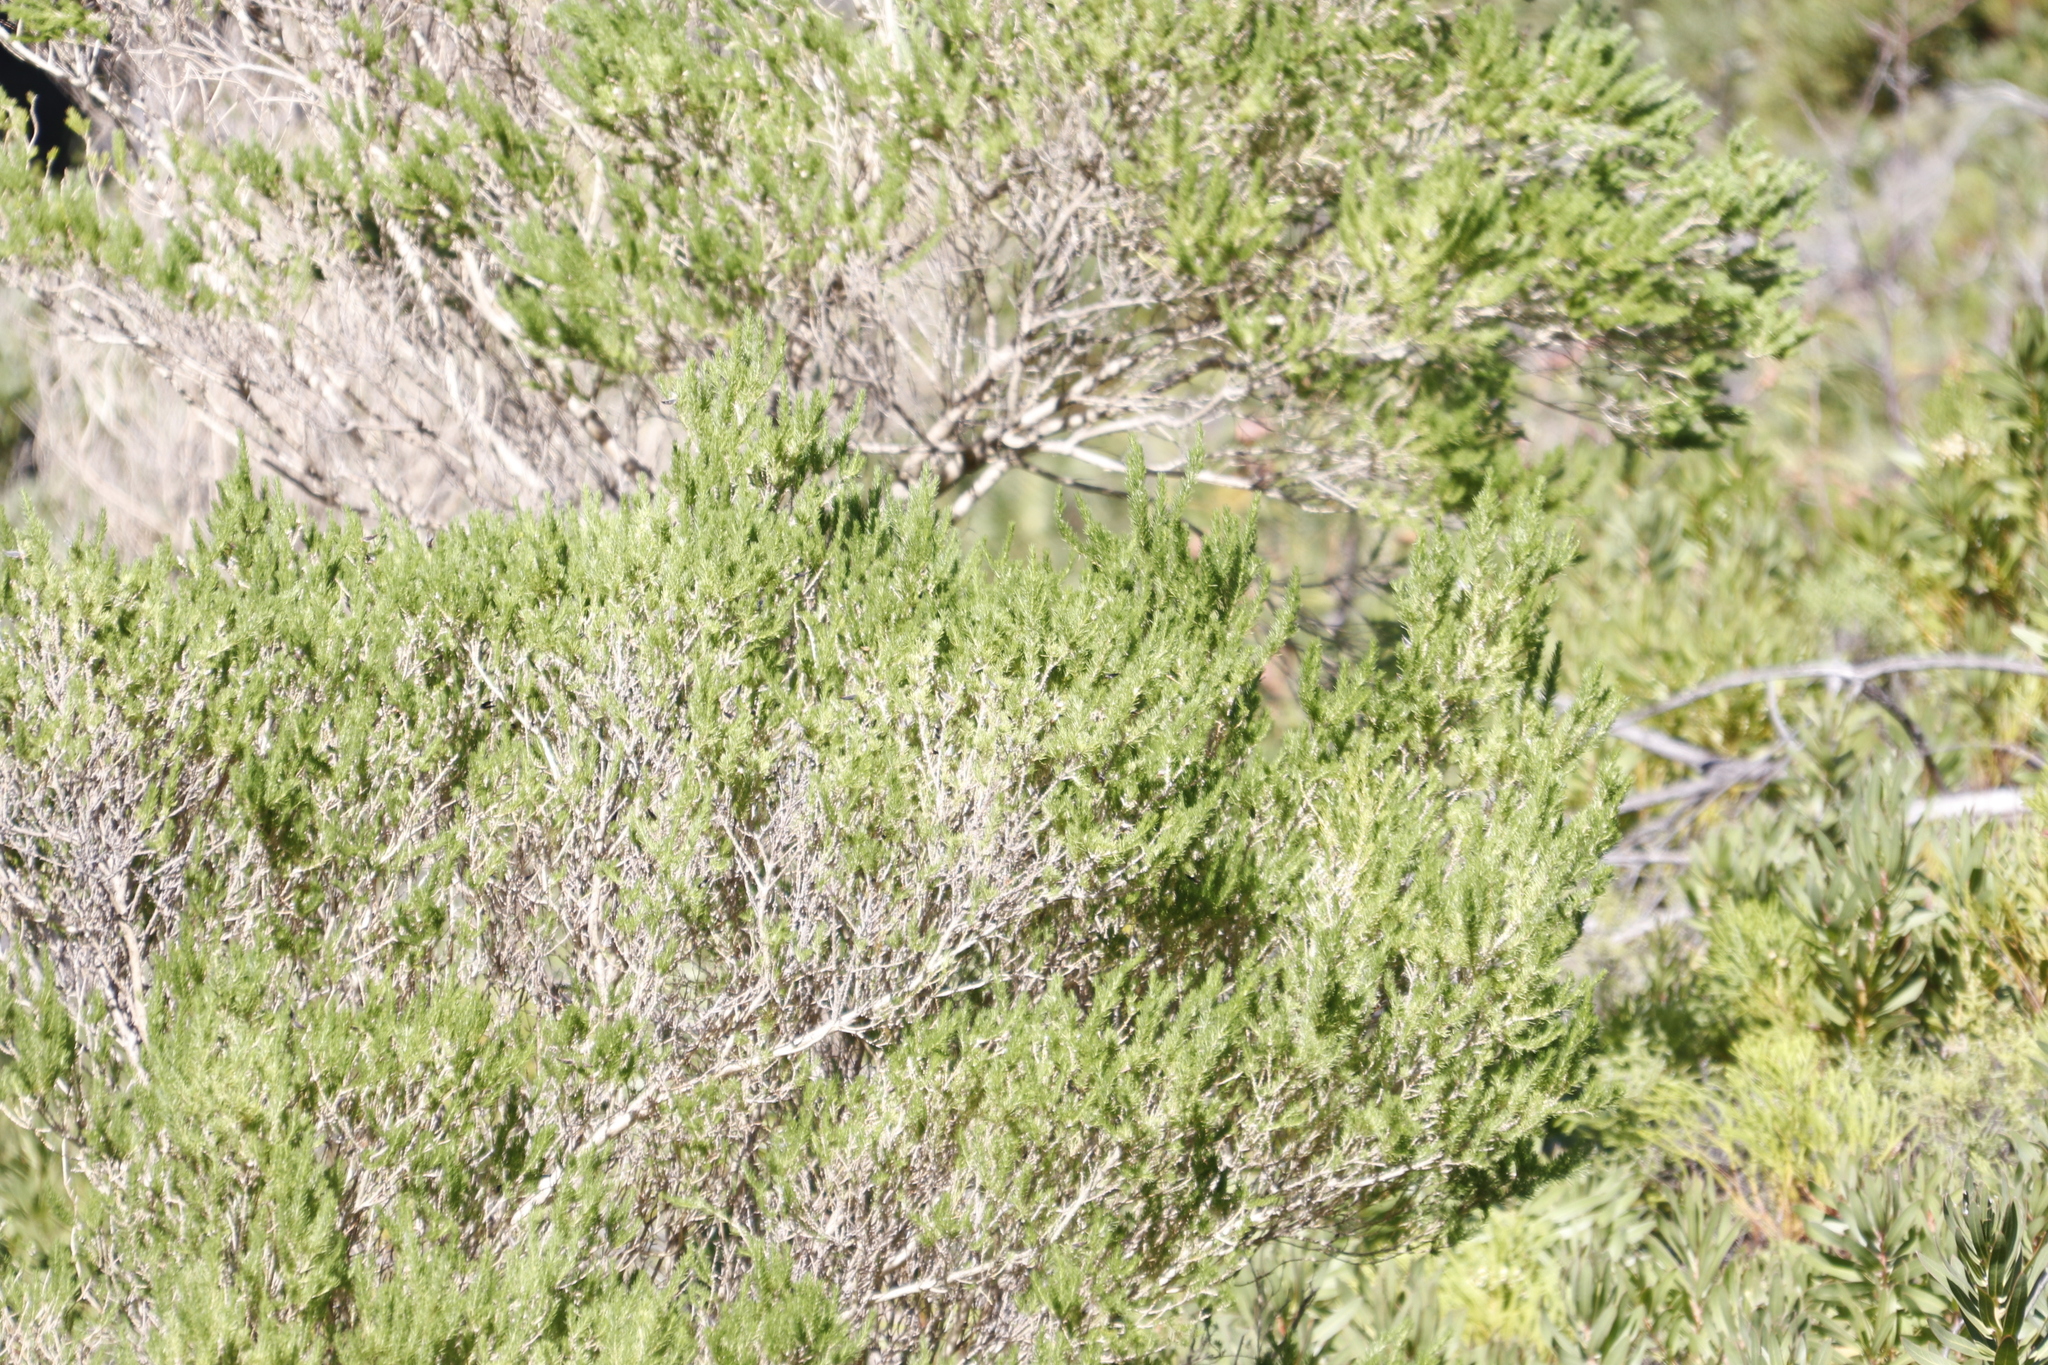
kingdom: Plantae
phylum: Tracheophyta
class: Magnoliopsida
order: Fabales
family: Fabaceae
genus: Psoralea
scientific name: Psoralea pinnata
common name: African scurfpea
